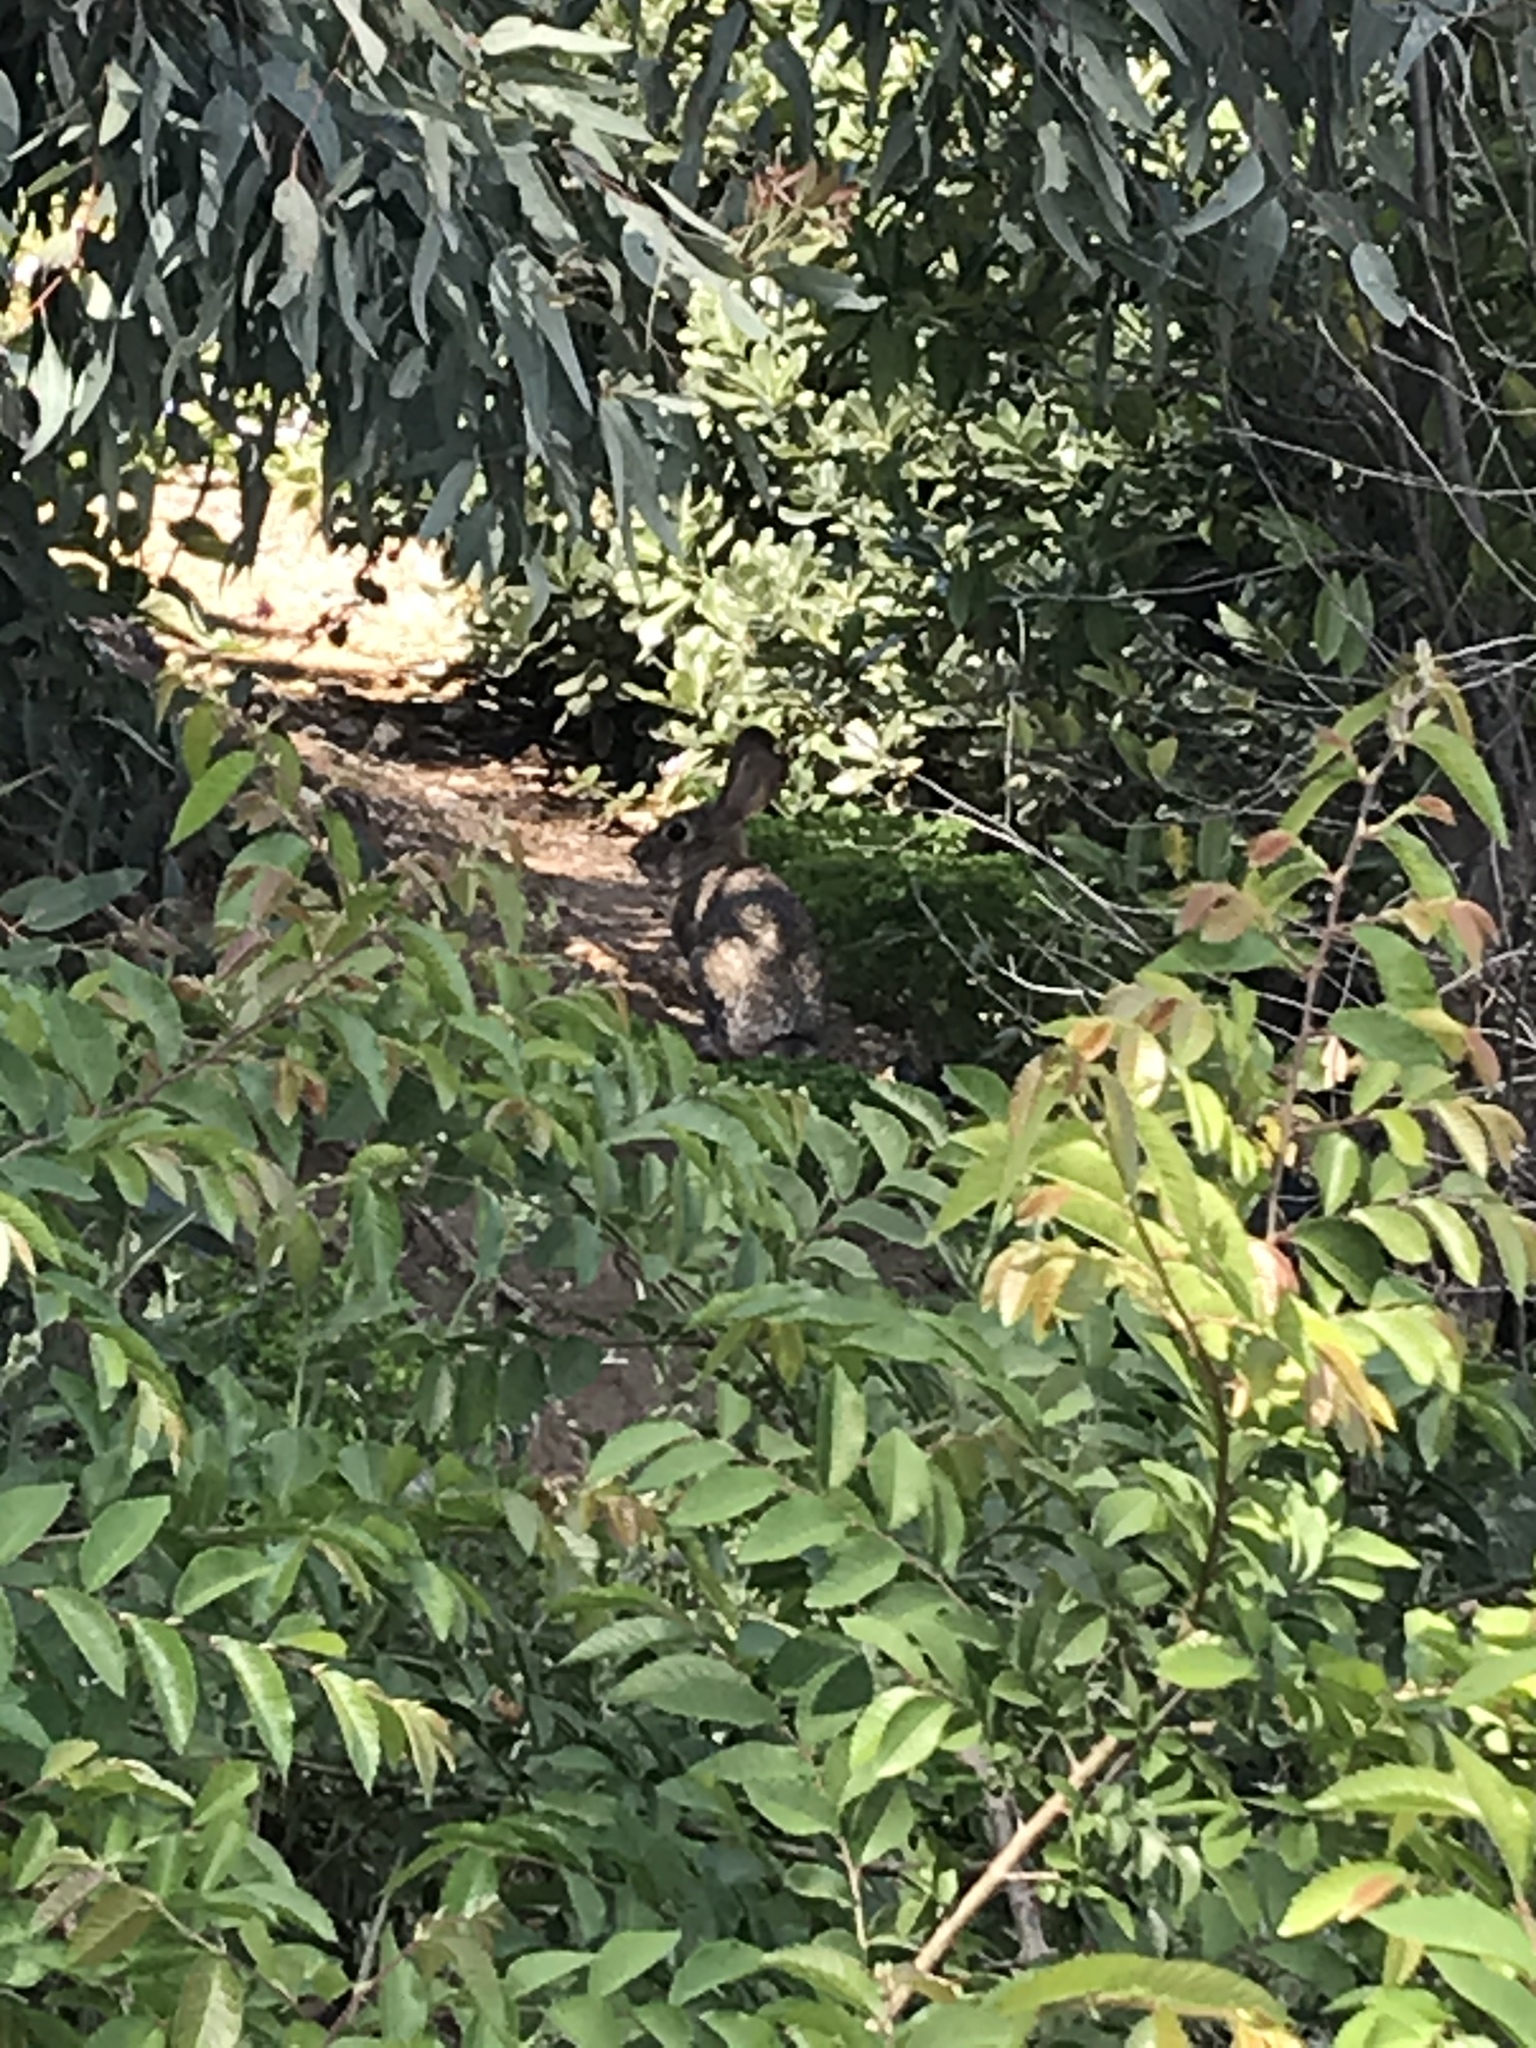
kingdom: Animalia
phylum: Chordata
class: Mammalia
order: Lagomorpha
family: Leporidae
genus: Sylvilagus
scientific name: Sylvilagus audubonii
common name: Desert cottontail
